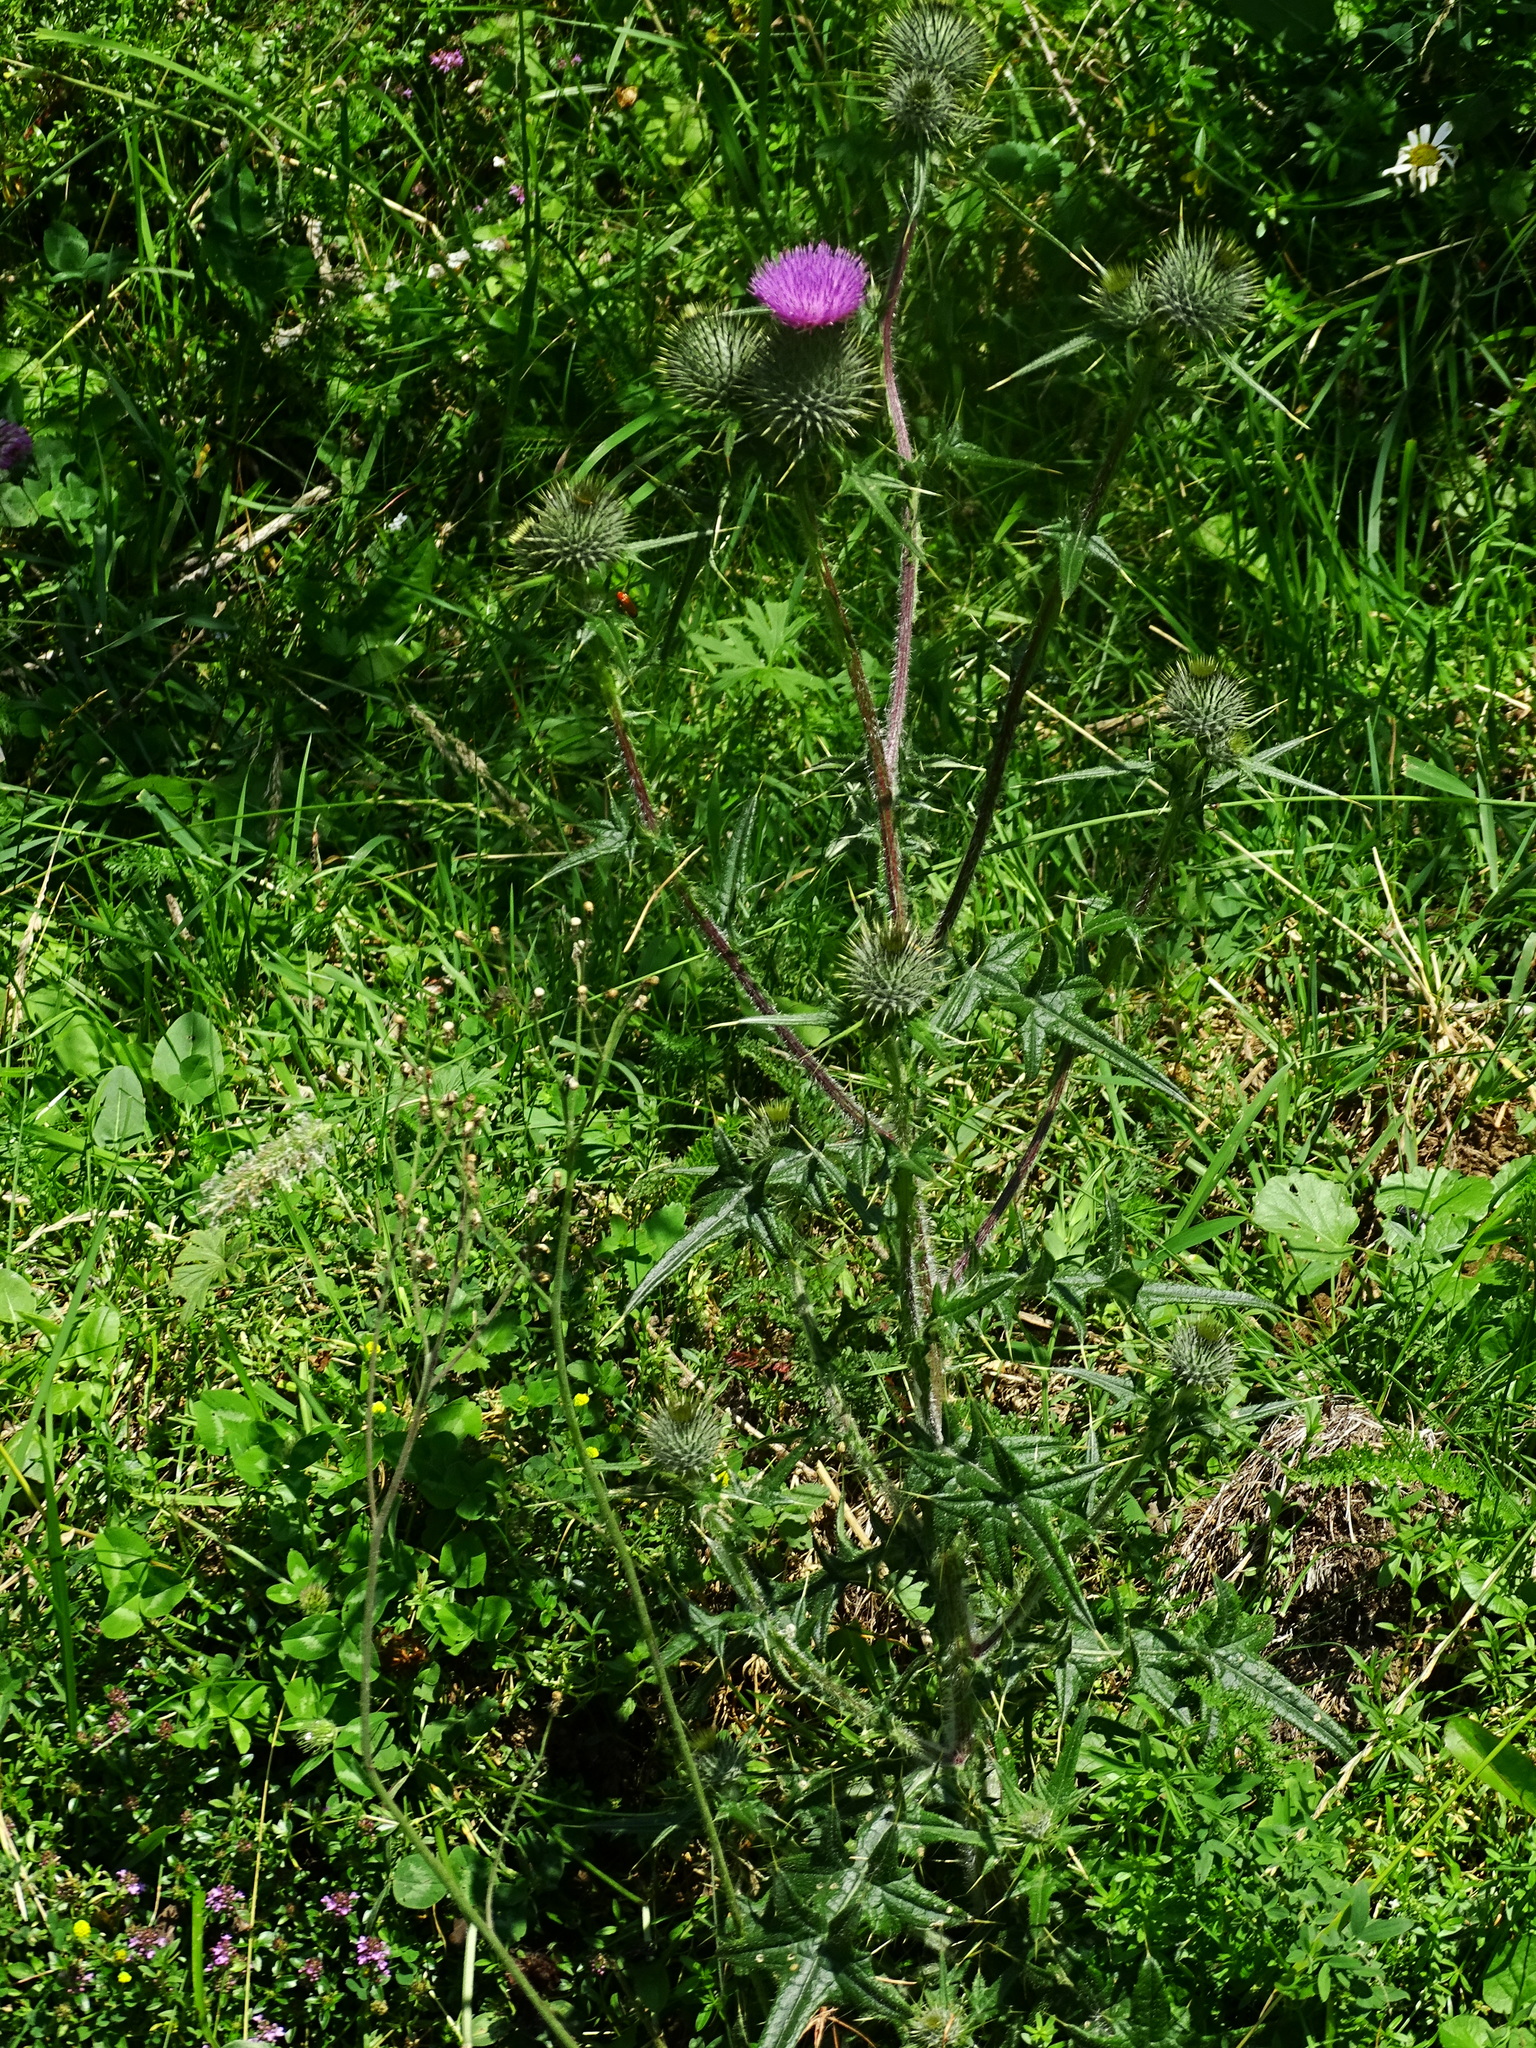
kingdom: Plantae
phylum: Tracheophyta
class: Magnoliopsida
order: Asterales
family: Asteraceae
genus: Cirsium
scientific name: Cirsium vulgare
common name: Bull thistle
